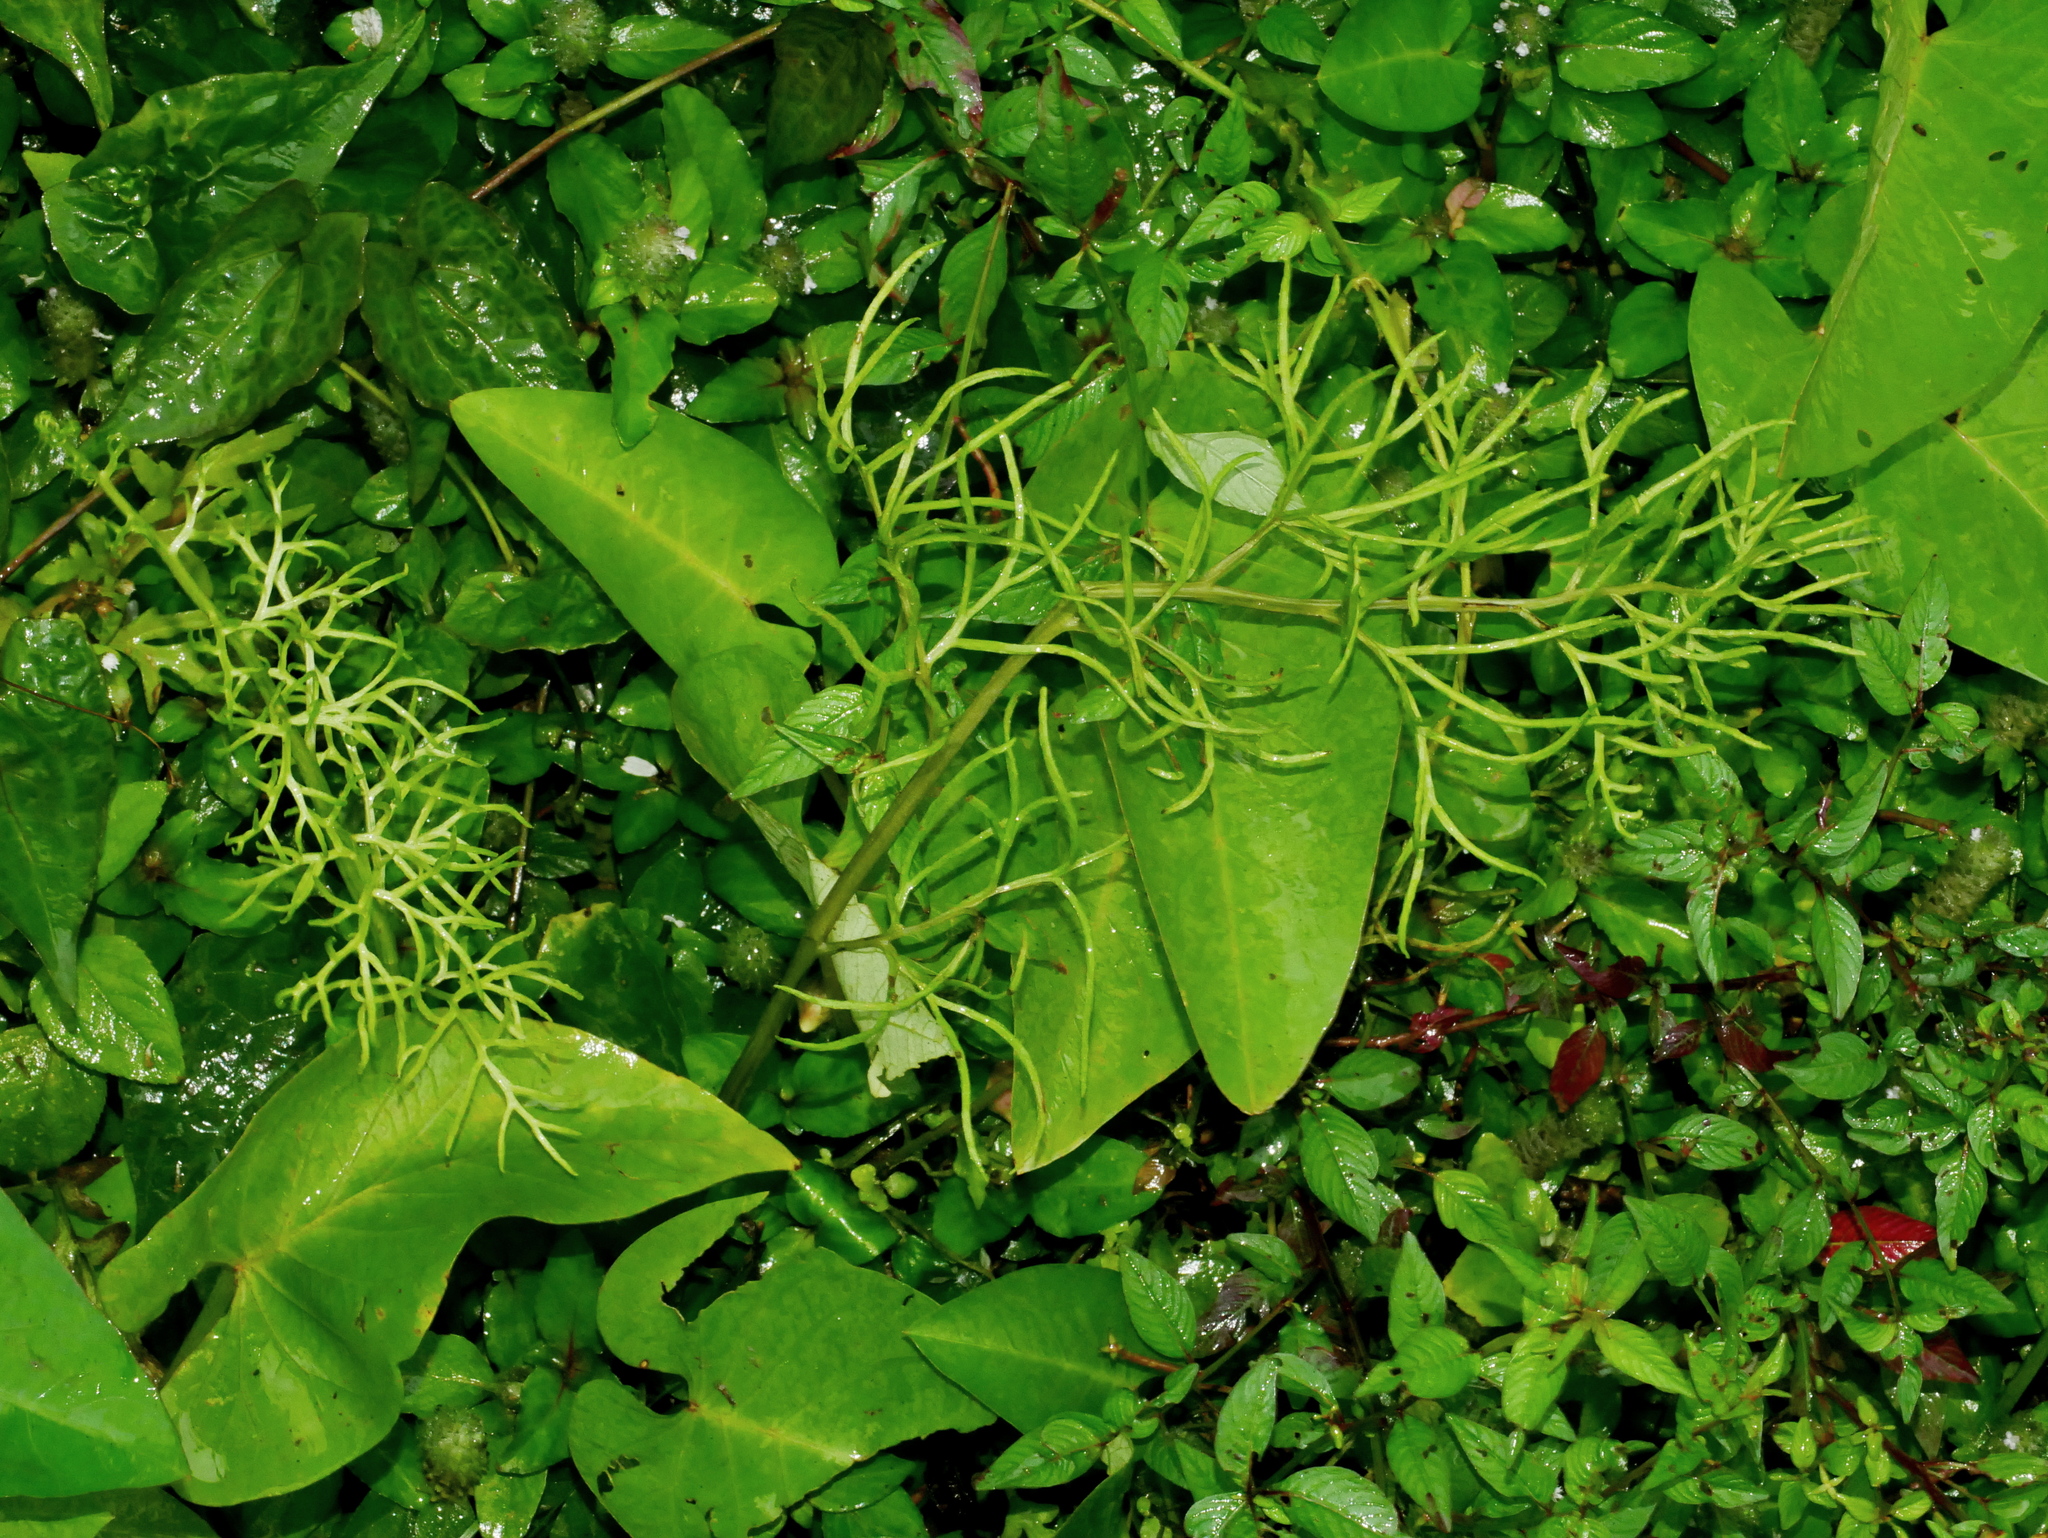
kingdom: Plantae
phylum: Tracheophyta
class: Polypodiopsida
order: Polypodiales
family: Pteridaceae
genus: Ceratopteris
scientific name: Ceratopteris thalictroides
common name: Water fern
